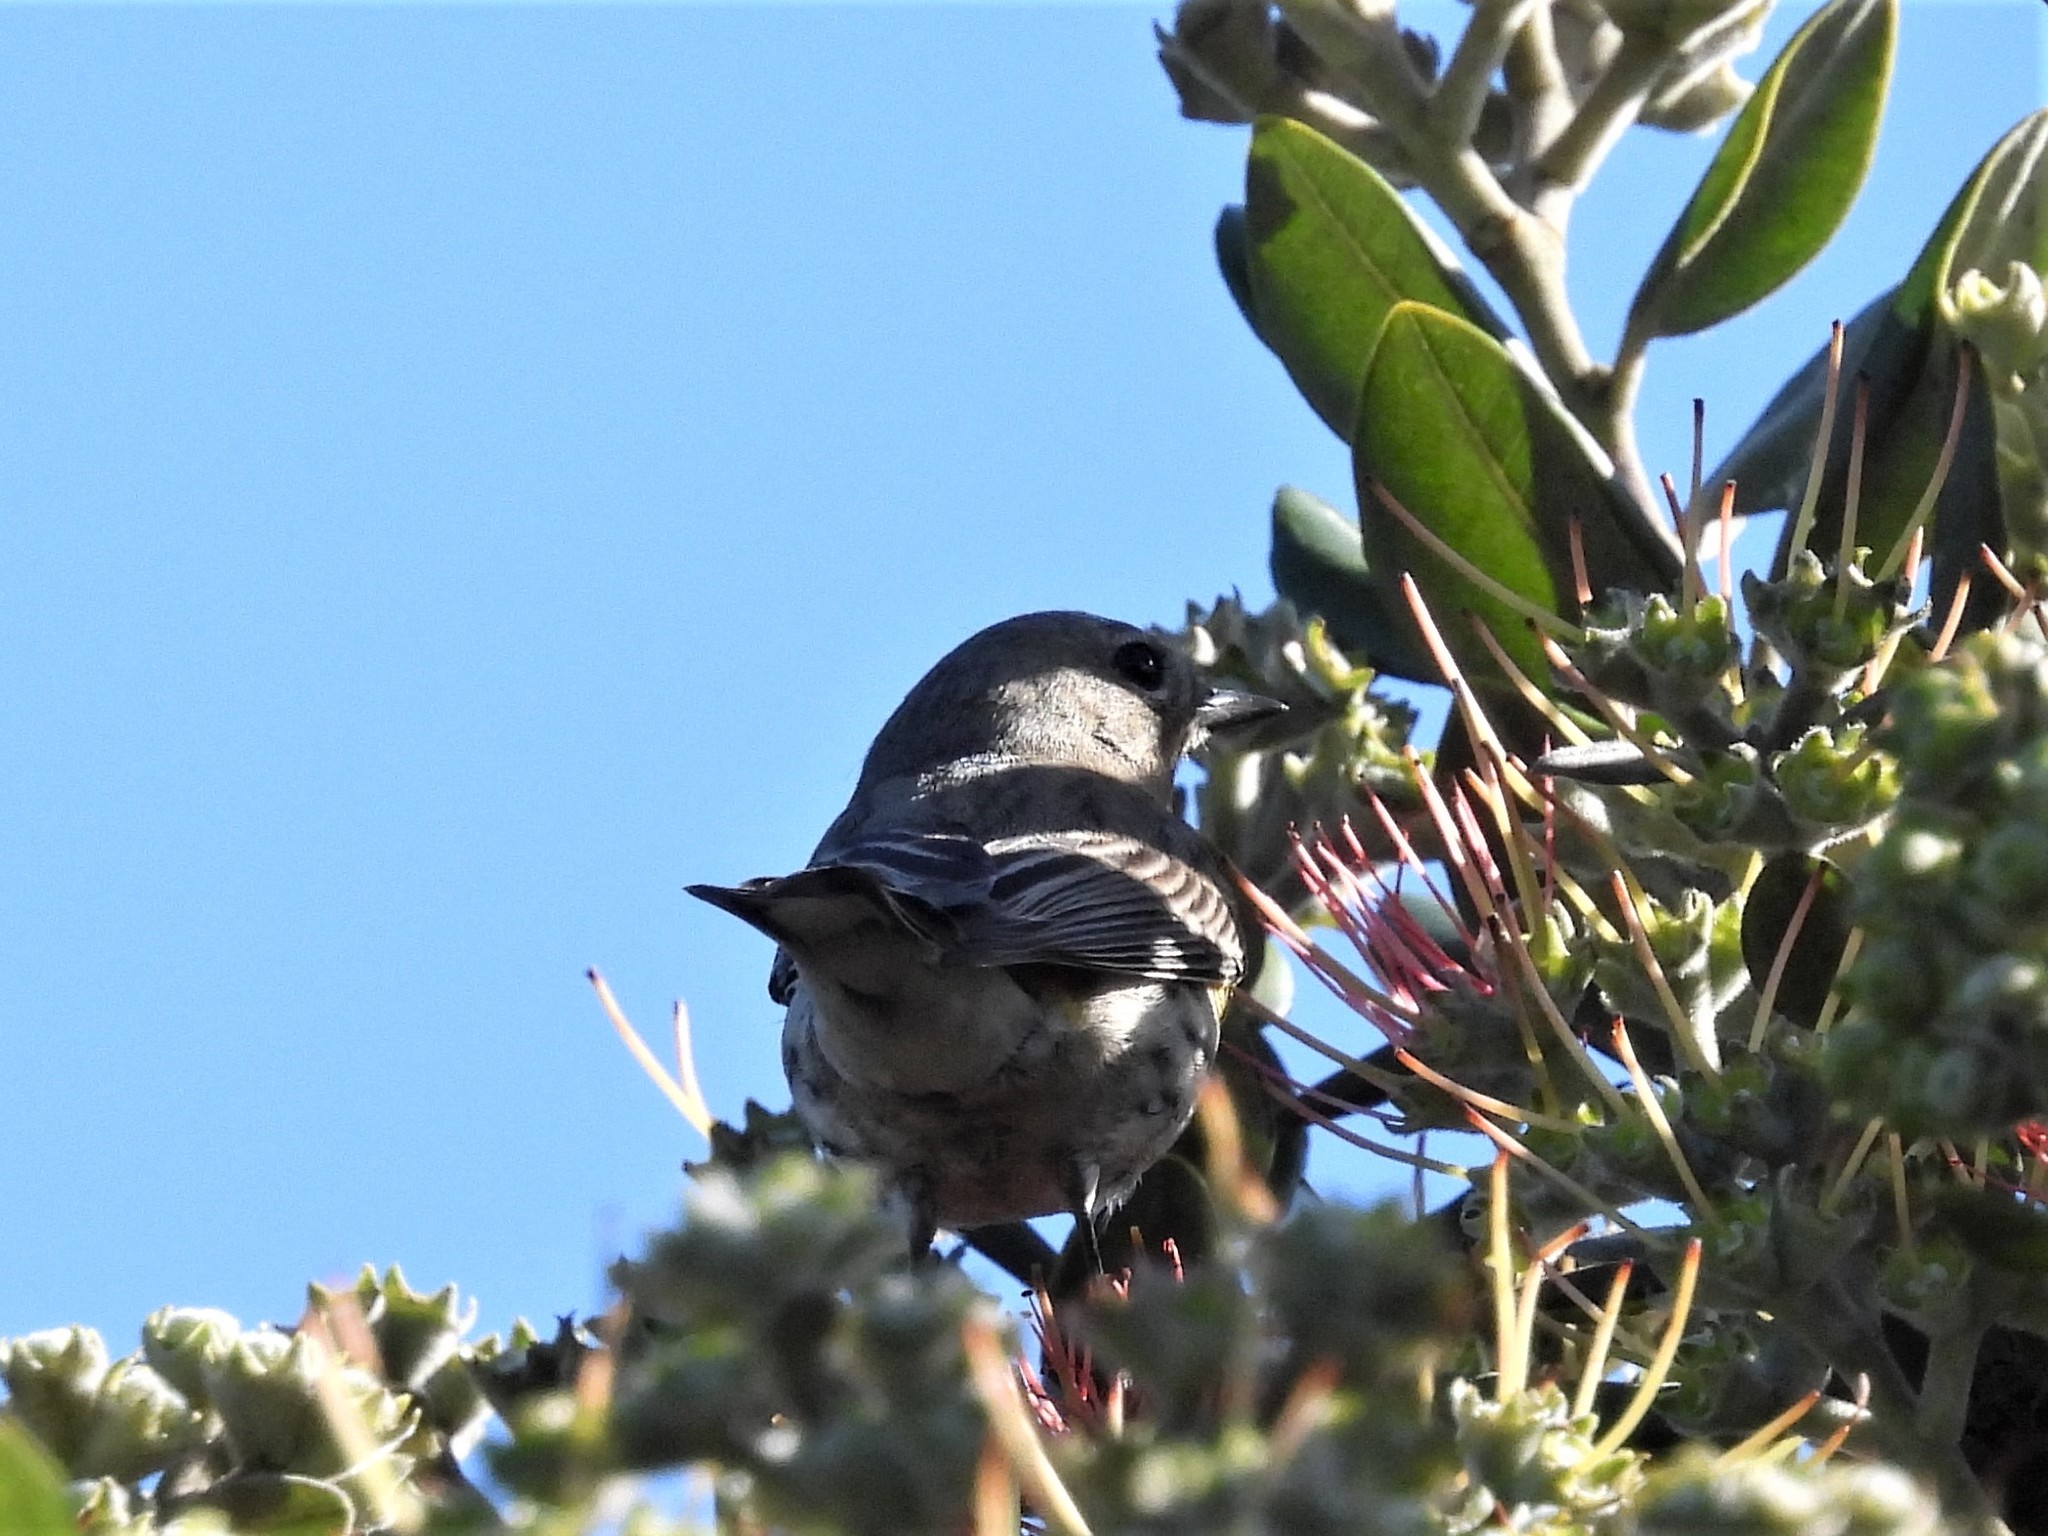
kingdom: Animalia
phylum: Chordata
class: Aves
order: Passeriformes
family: Parulidae
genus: Setophaga
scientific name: Setophaga coronata
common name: Myrtle warbler
